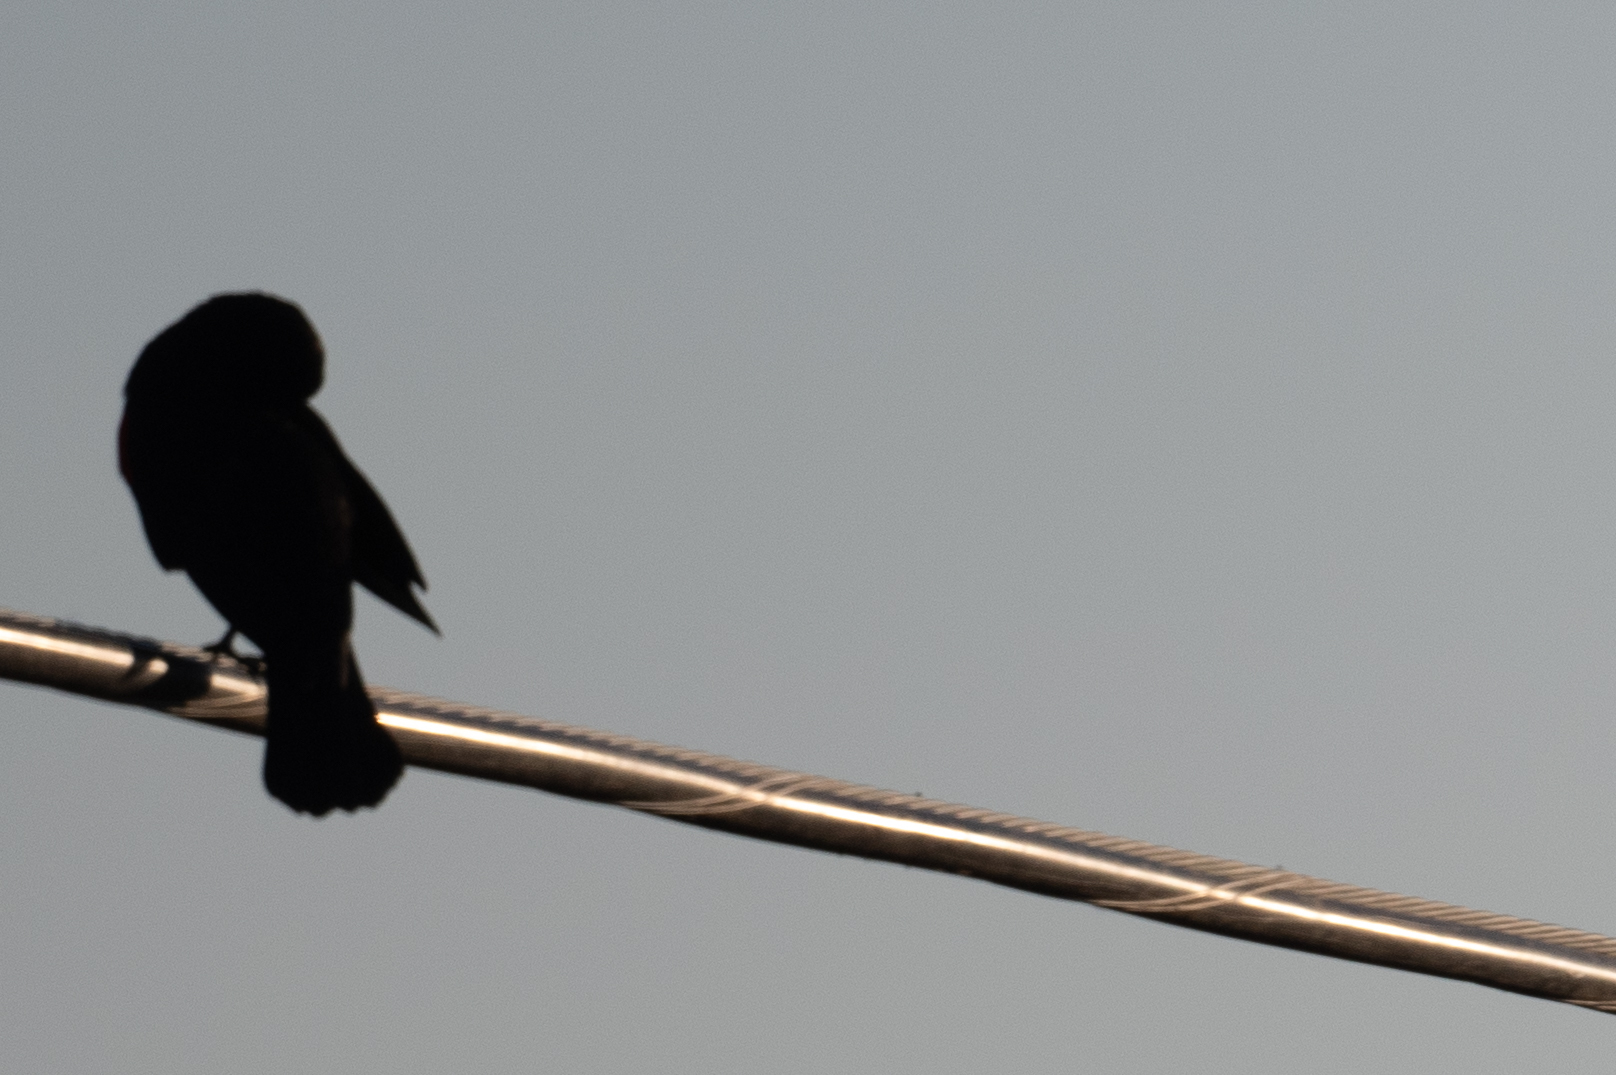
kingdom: Animalia
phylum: Chordata
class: Aves
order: Passeriformes
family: Icteridae
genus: Agelaius
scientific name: Agelaius phoeniceus
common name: Red-winged blackbird
